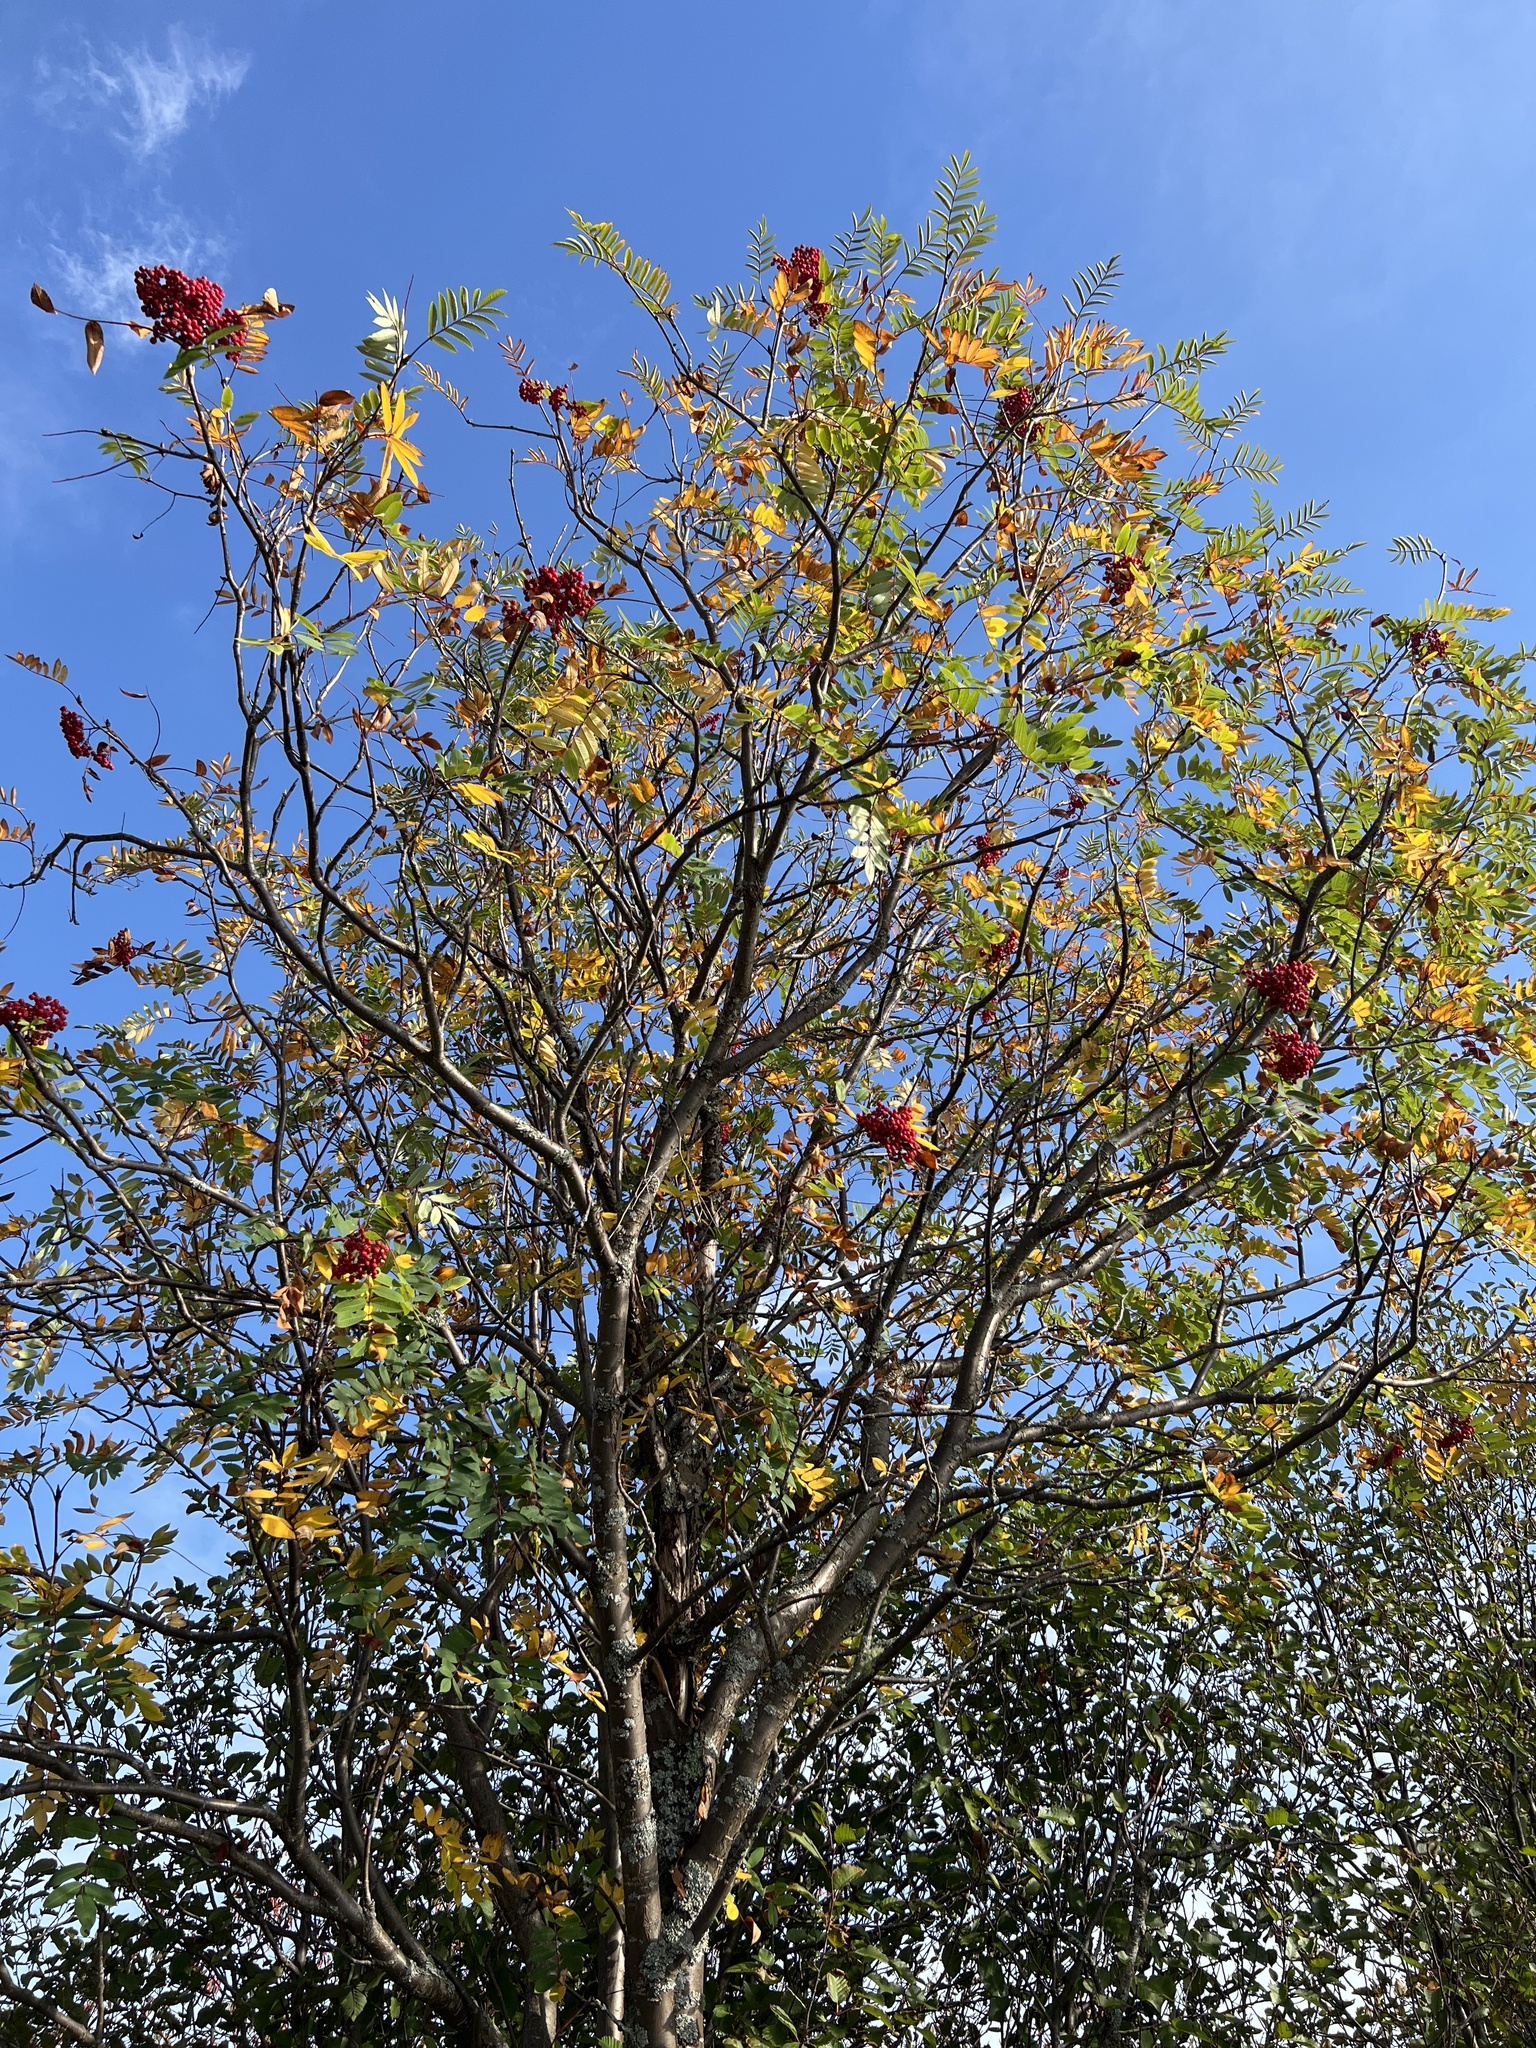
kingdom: Plantae
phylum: Tracheophyta
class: Magnoliopsida
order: Rosales
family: Rosaceae
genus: Sorbus
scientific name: Sorbus decora
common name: Northern mountain-ash
